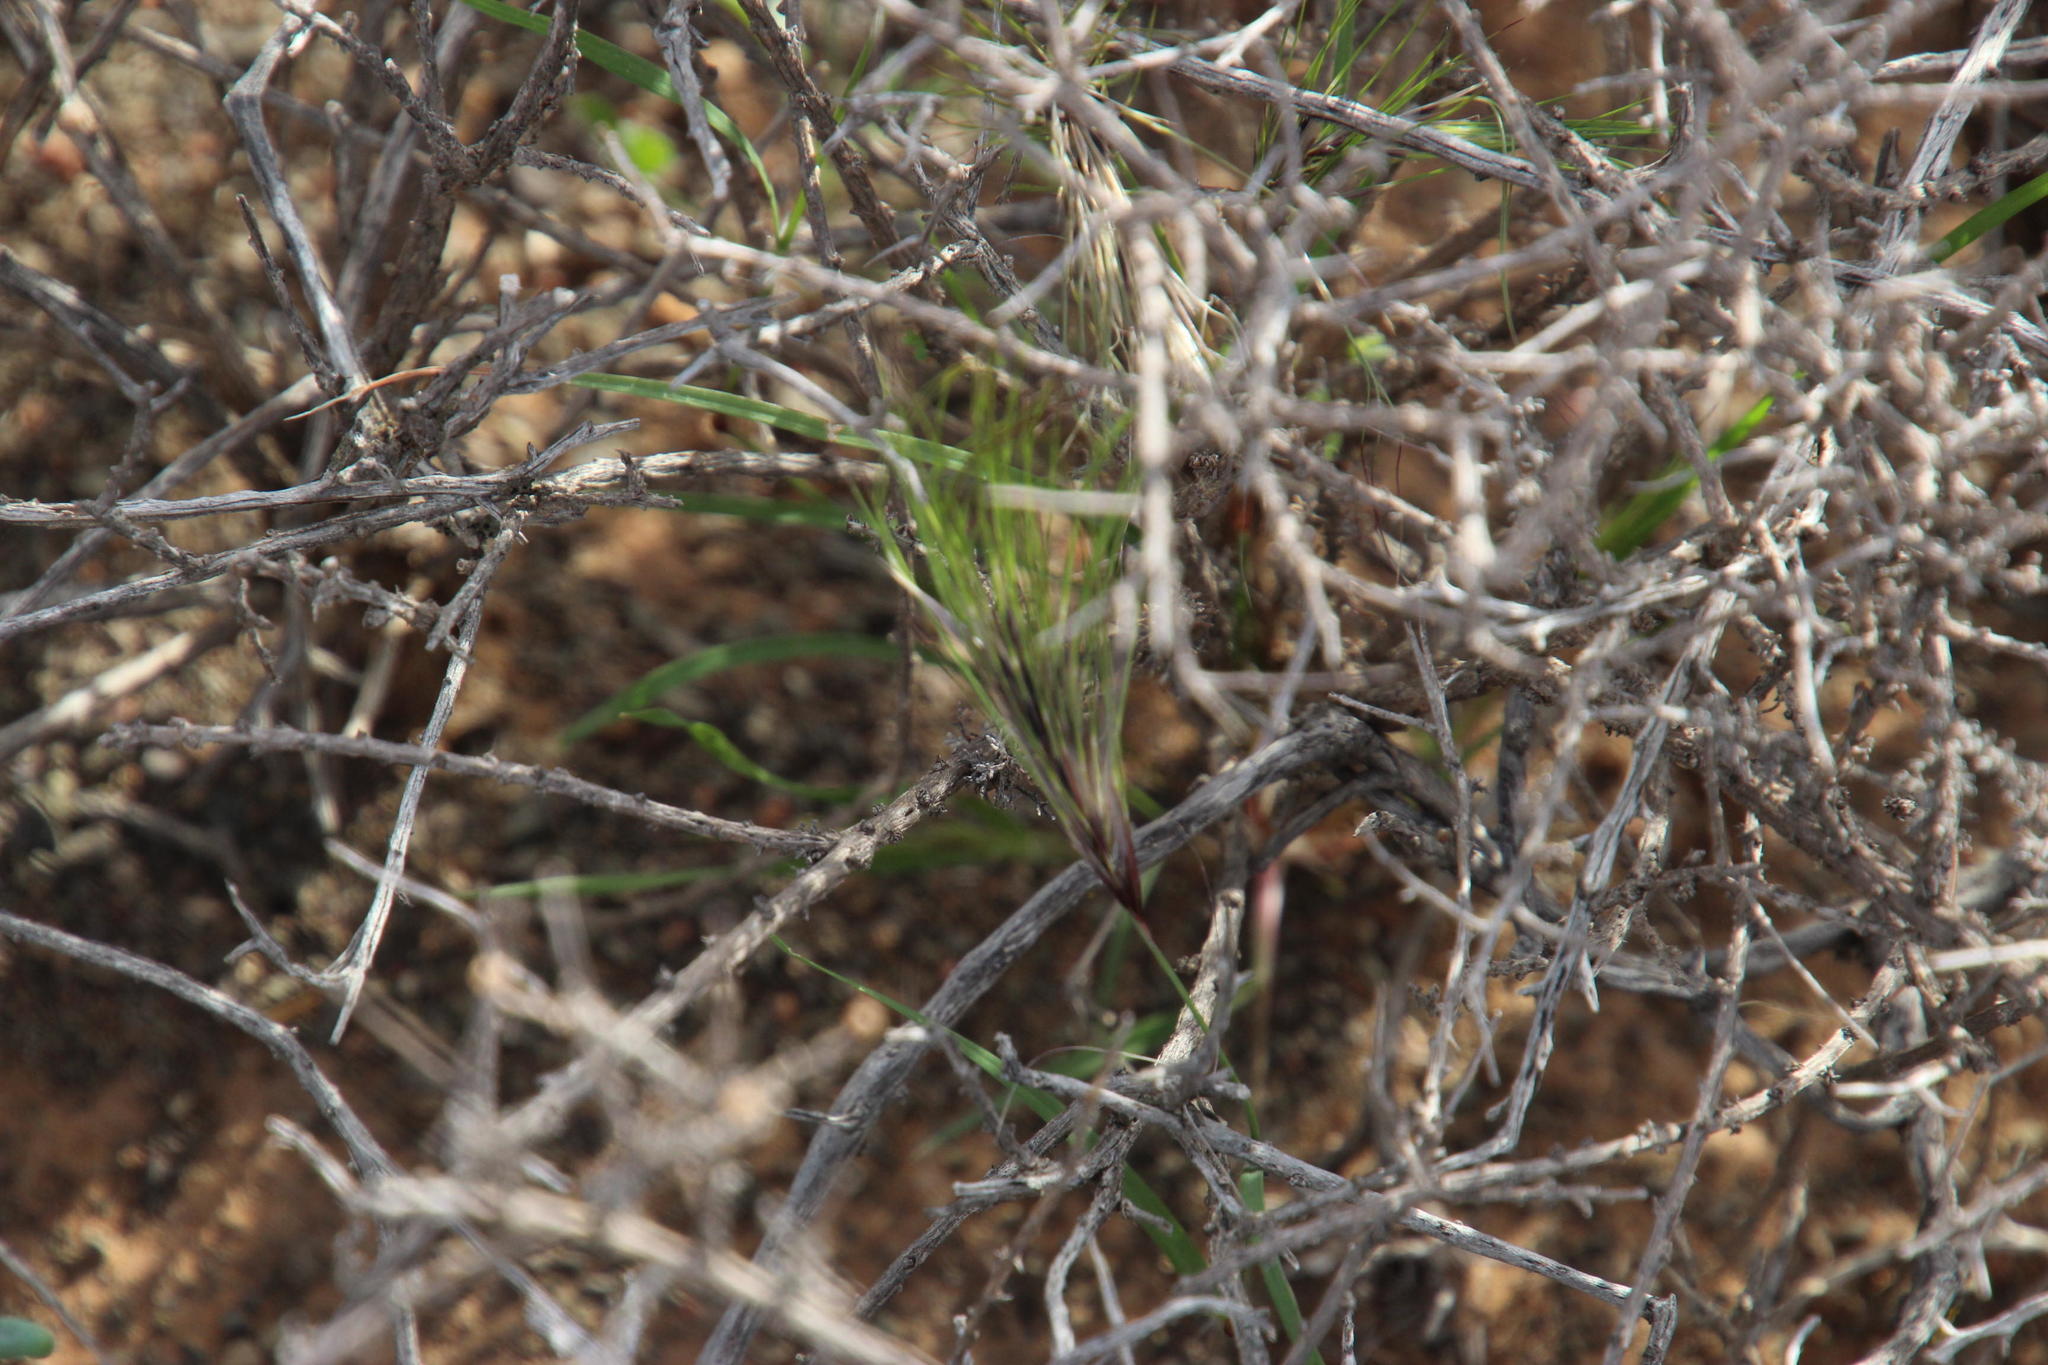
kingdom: Plantae
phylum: Tracheophyta
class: Liliopsida
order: Poales
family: Poaceae
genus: Aristida
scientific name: Aristida adscensionis
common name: Sixweeks threeawn
